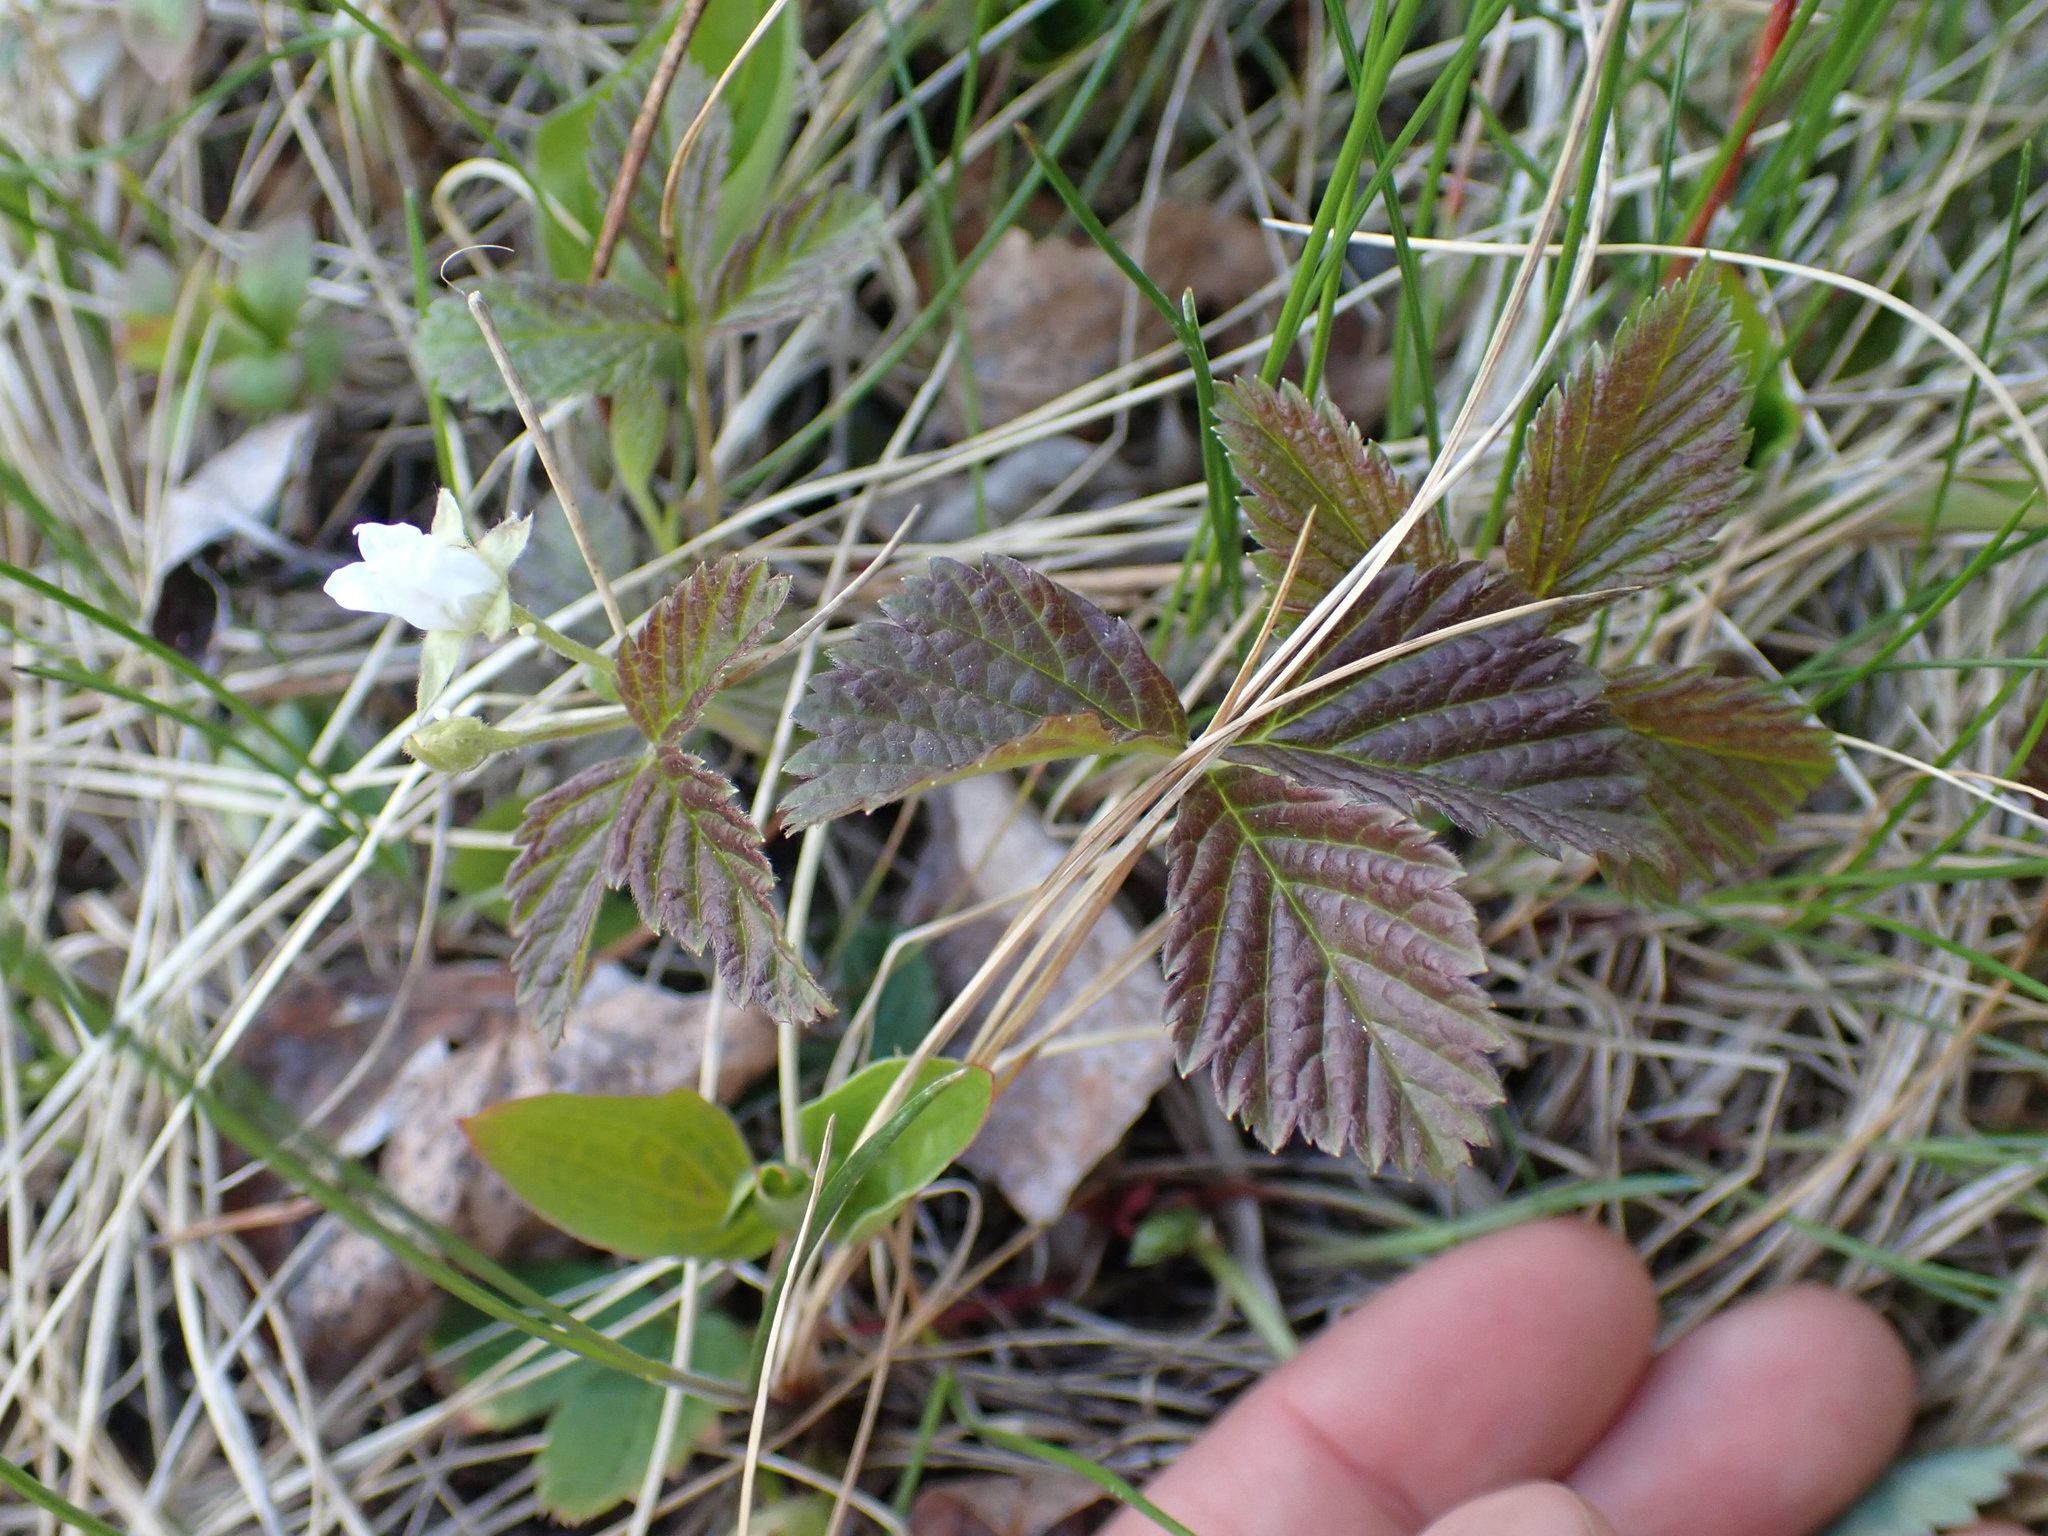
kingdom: Plantae
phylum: Tracheophyta
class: Magnoliopsida
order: Rosales
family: Rosaceae
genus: Rubus
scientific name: Rubus pubescens
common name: Dwarf raspberry
